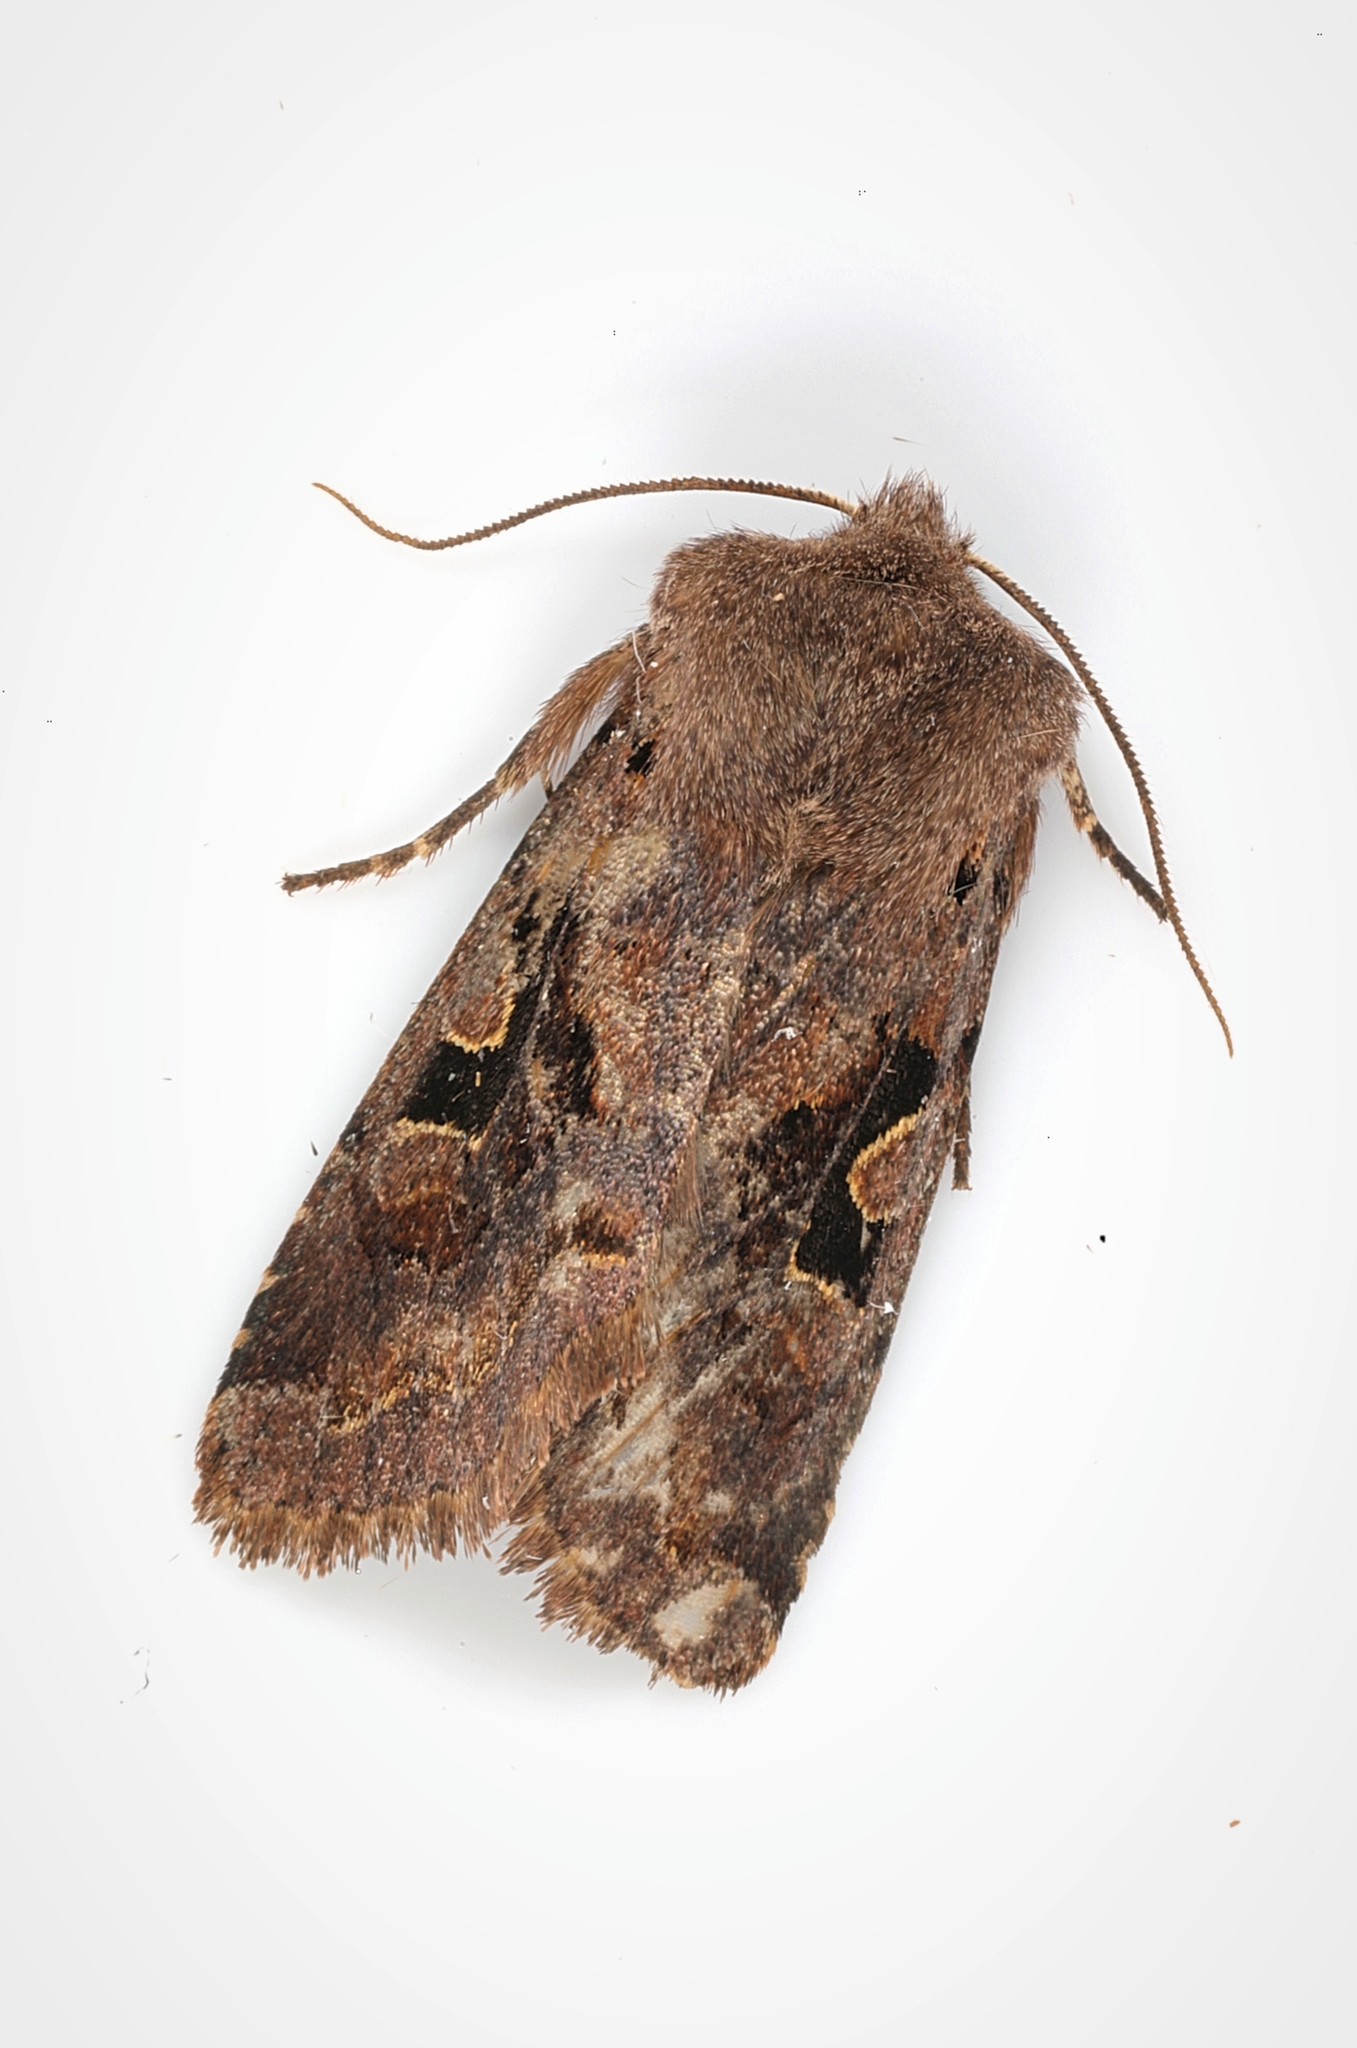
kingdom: Animalia
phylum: Arthropoda
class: Insecta
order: Lepidoptera
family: Noctuidae
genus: Orthosia
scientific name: Orthosia gothica
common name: Hebrew character
